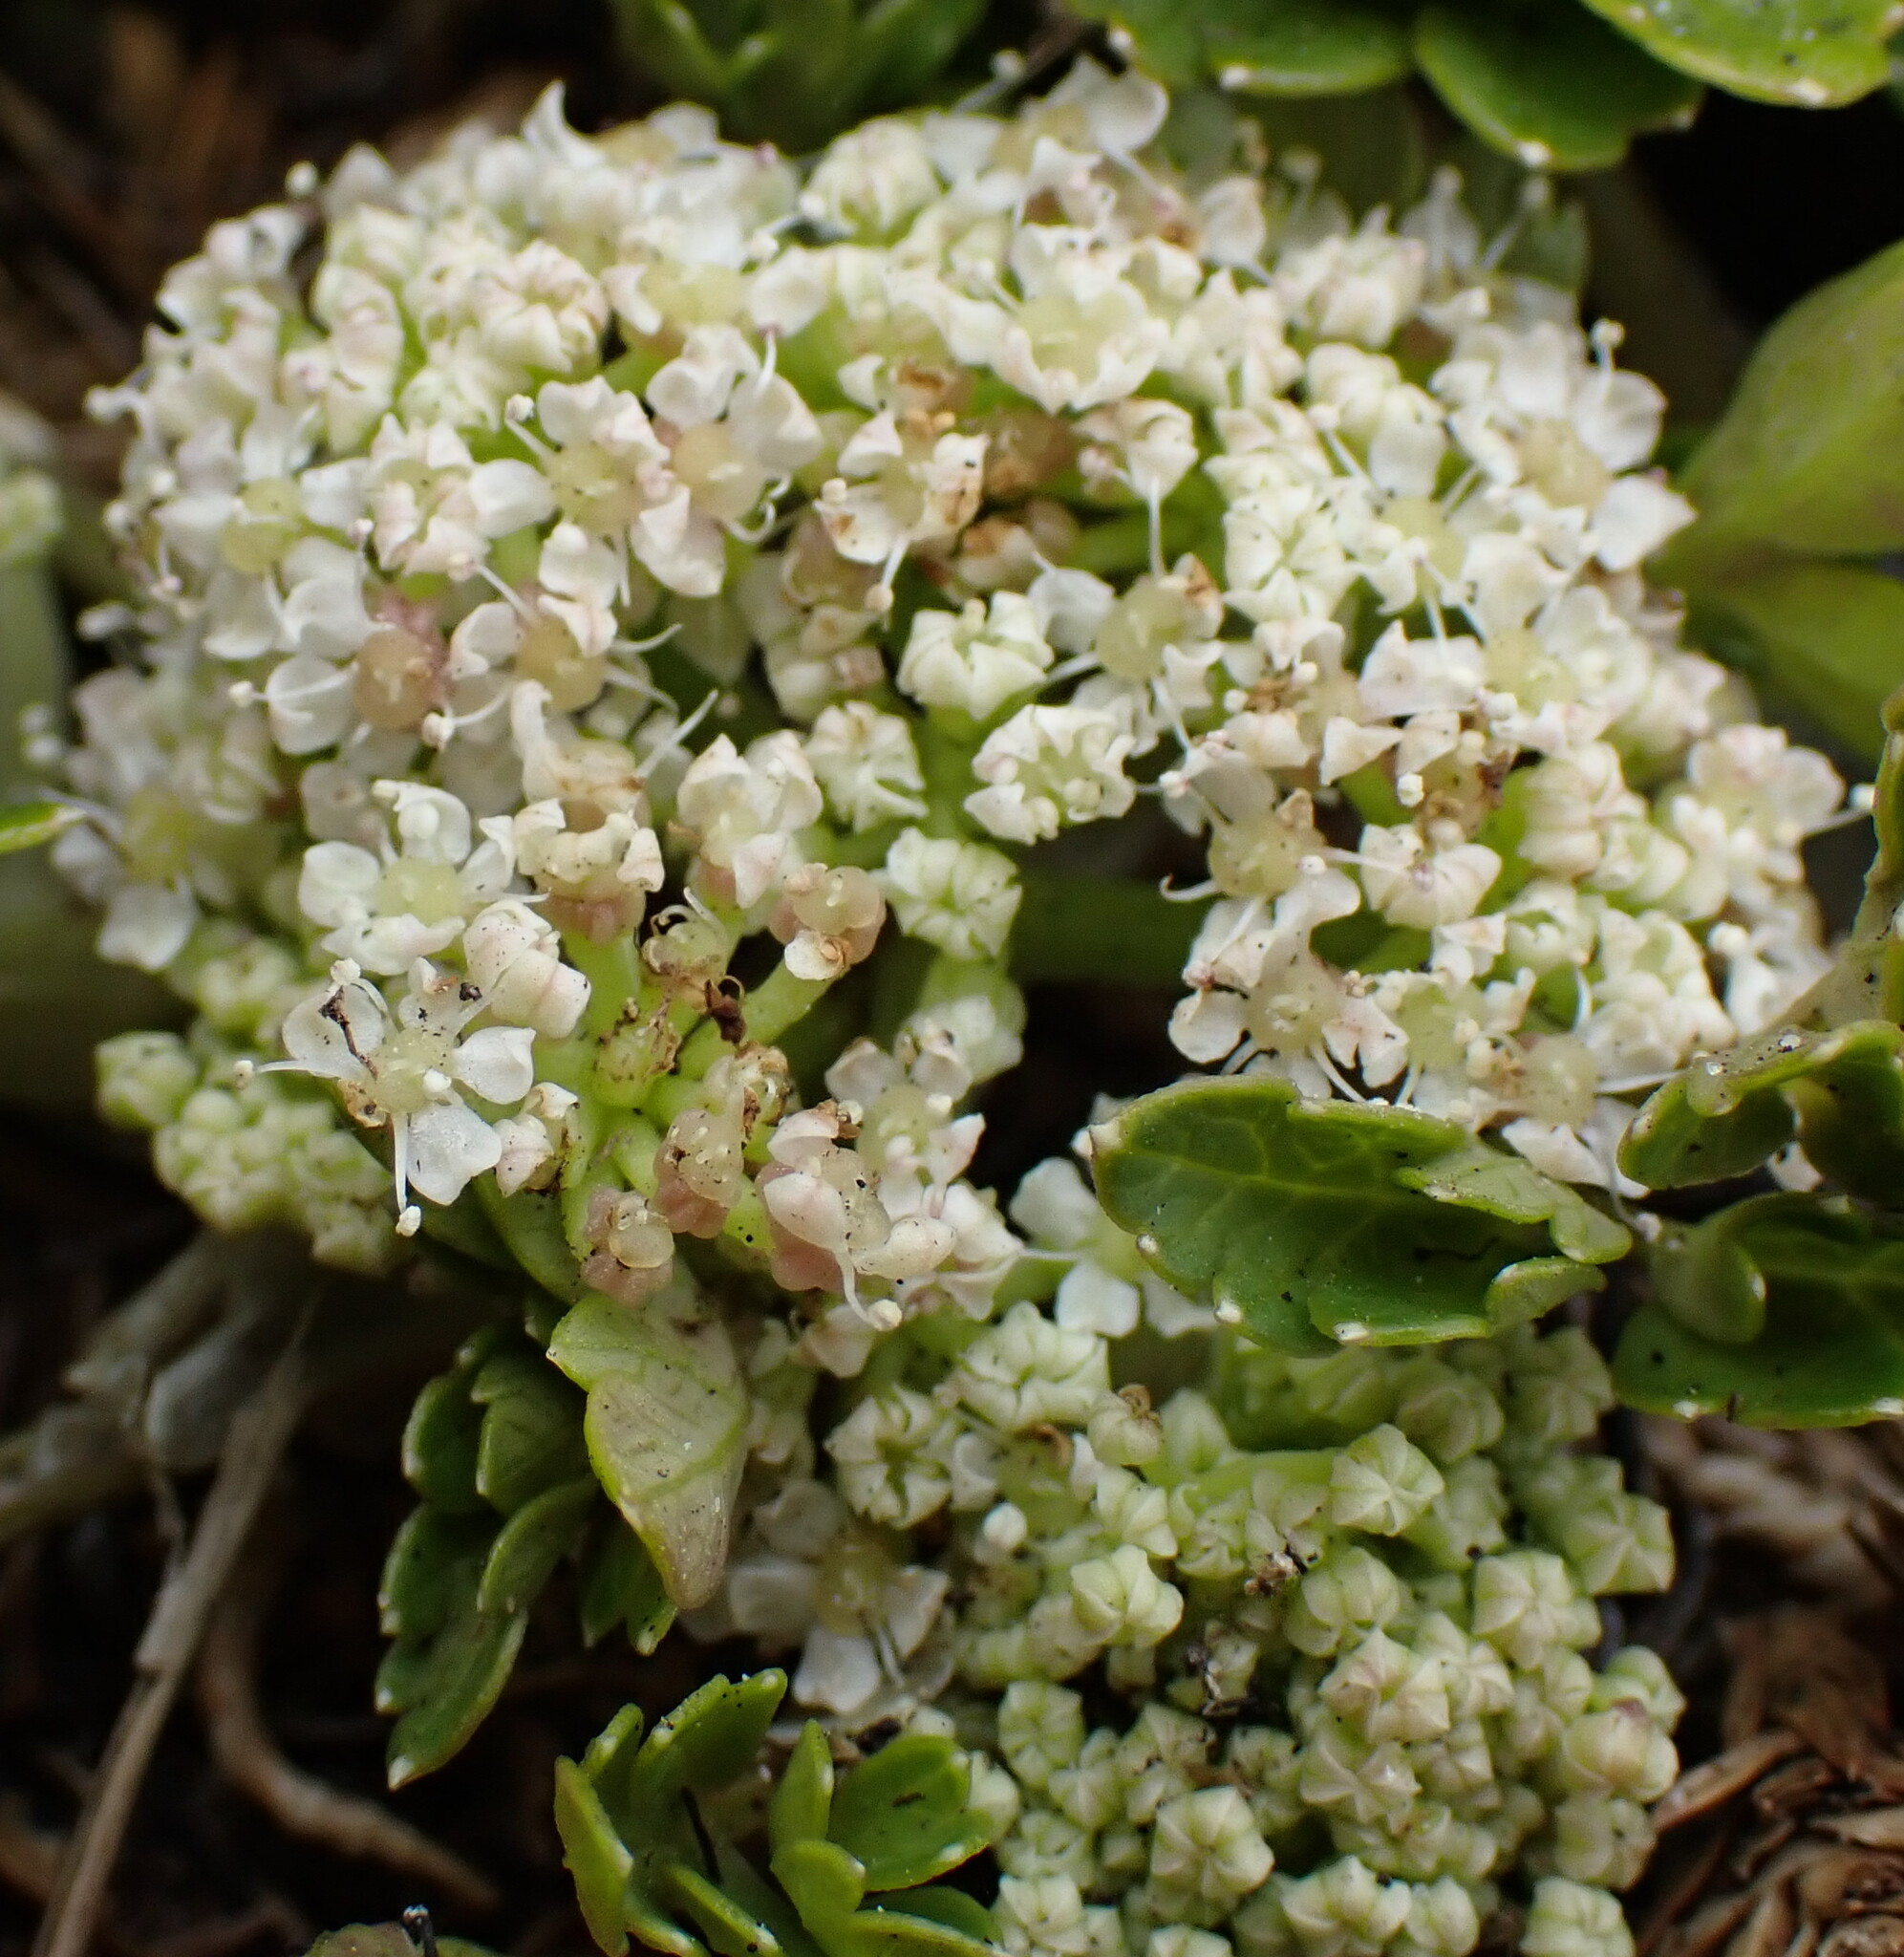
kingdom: Plantae
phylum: Tracheophyta
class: Magnoliopsida
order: Apiales
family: Apiaceae
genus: Apium
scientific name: Apium prostratum
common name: Prostrate marshwort
